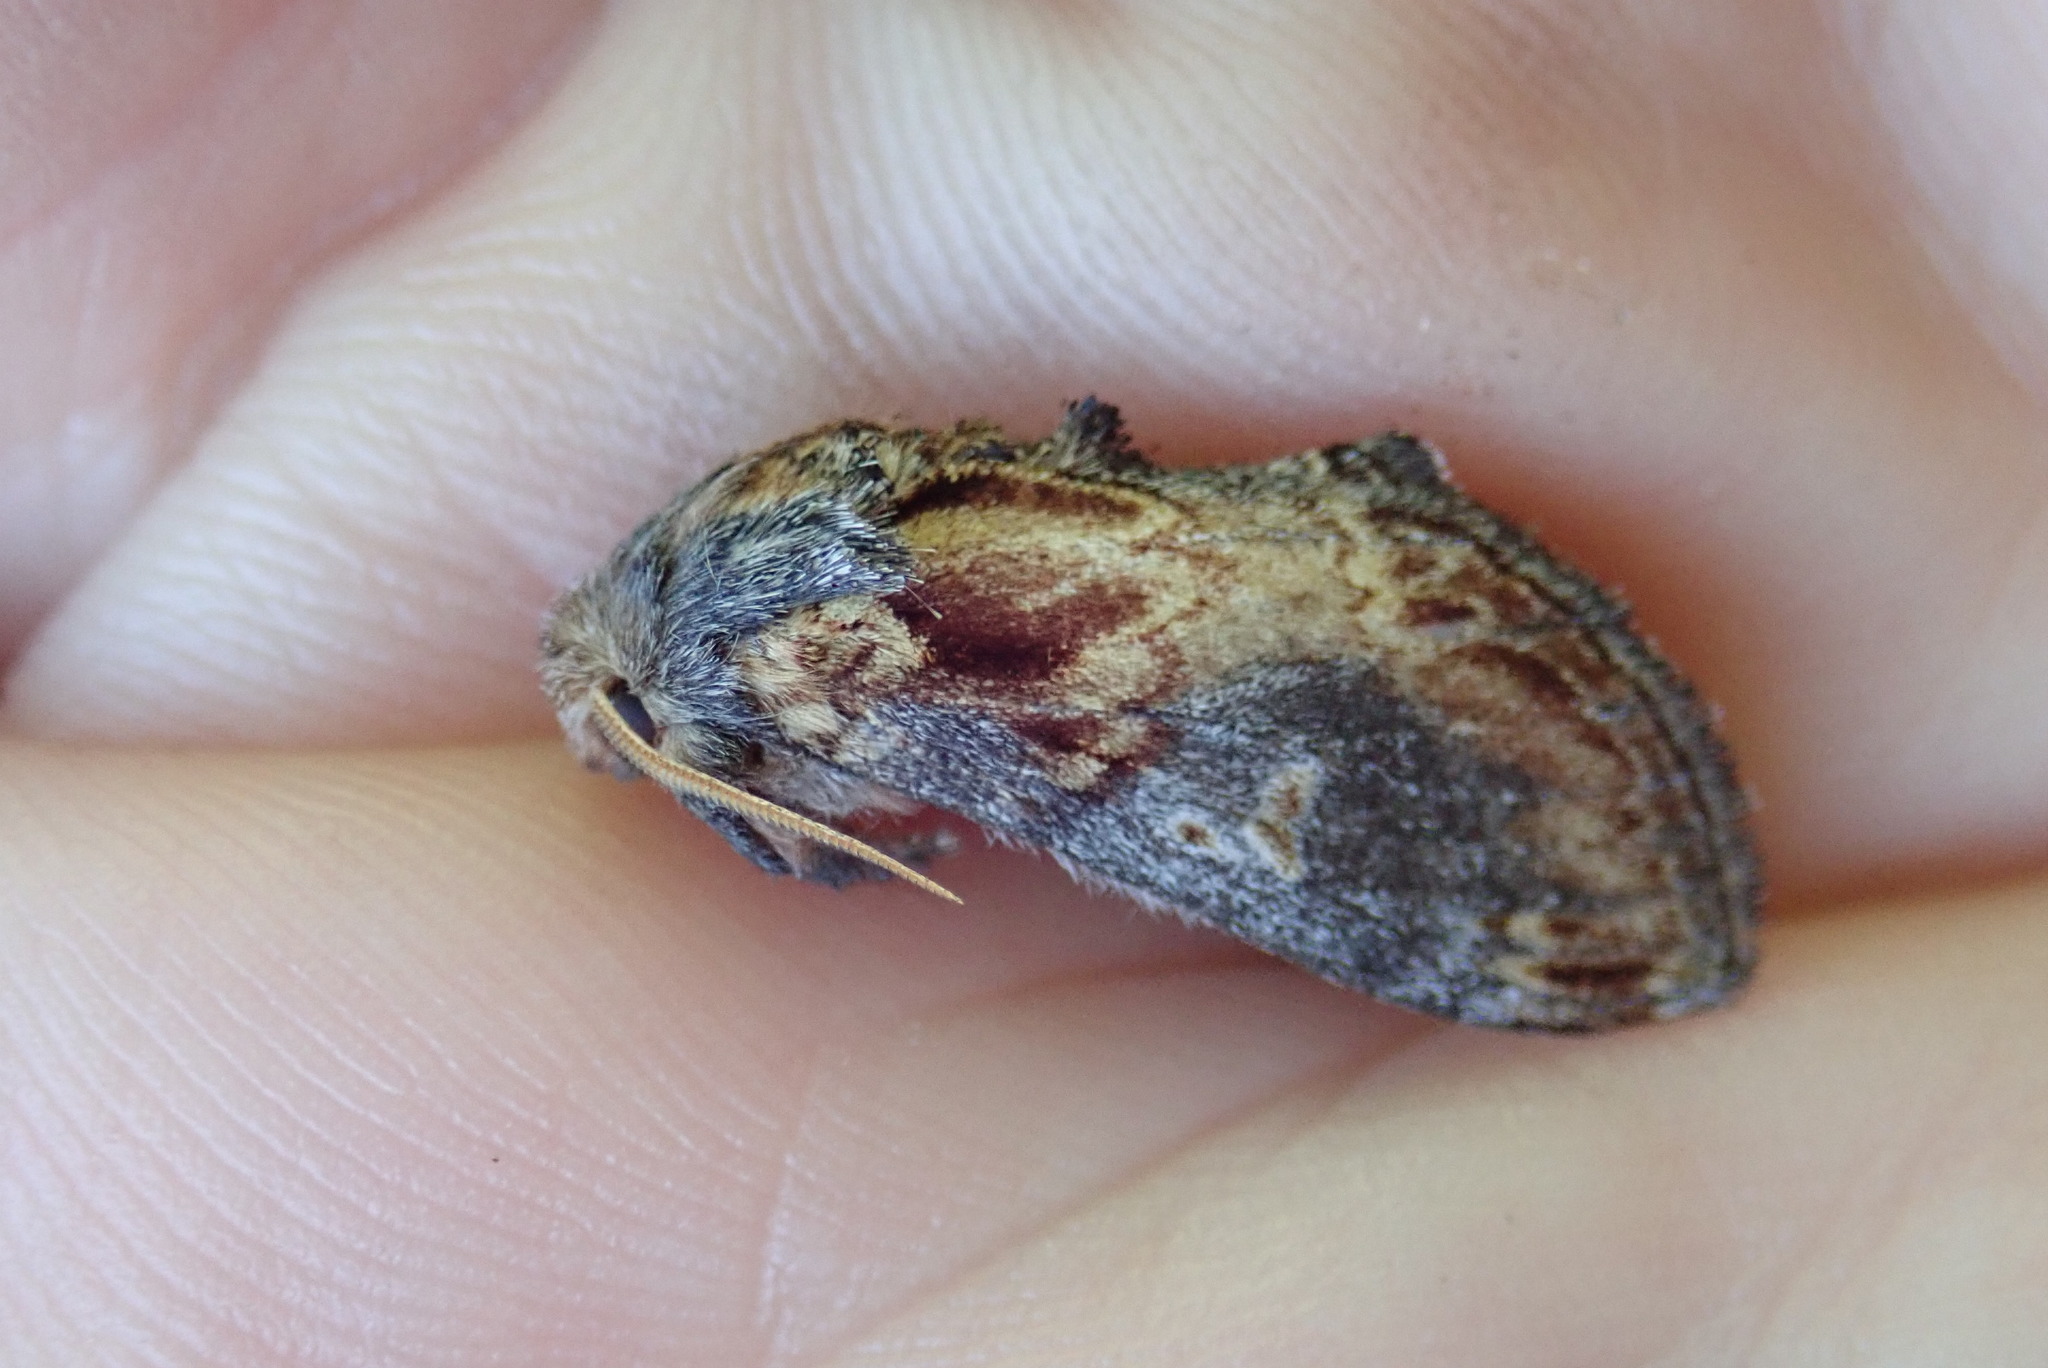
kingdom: Animalia
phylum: Arthropoda
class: Insecta
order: Lepidoptera
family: Notodontidae
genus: Notodonta
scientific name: Notodonta scitipennis
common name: Finned-willow prominent moth
